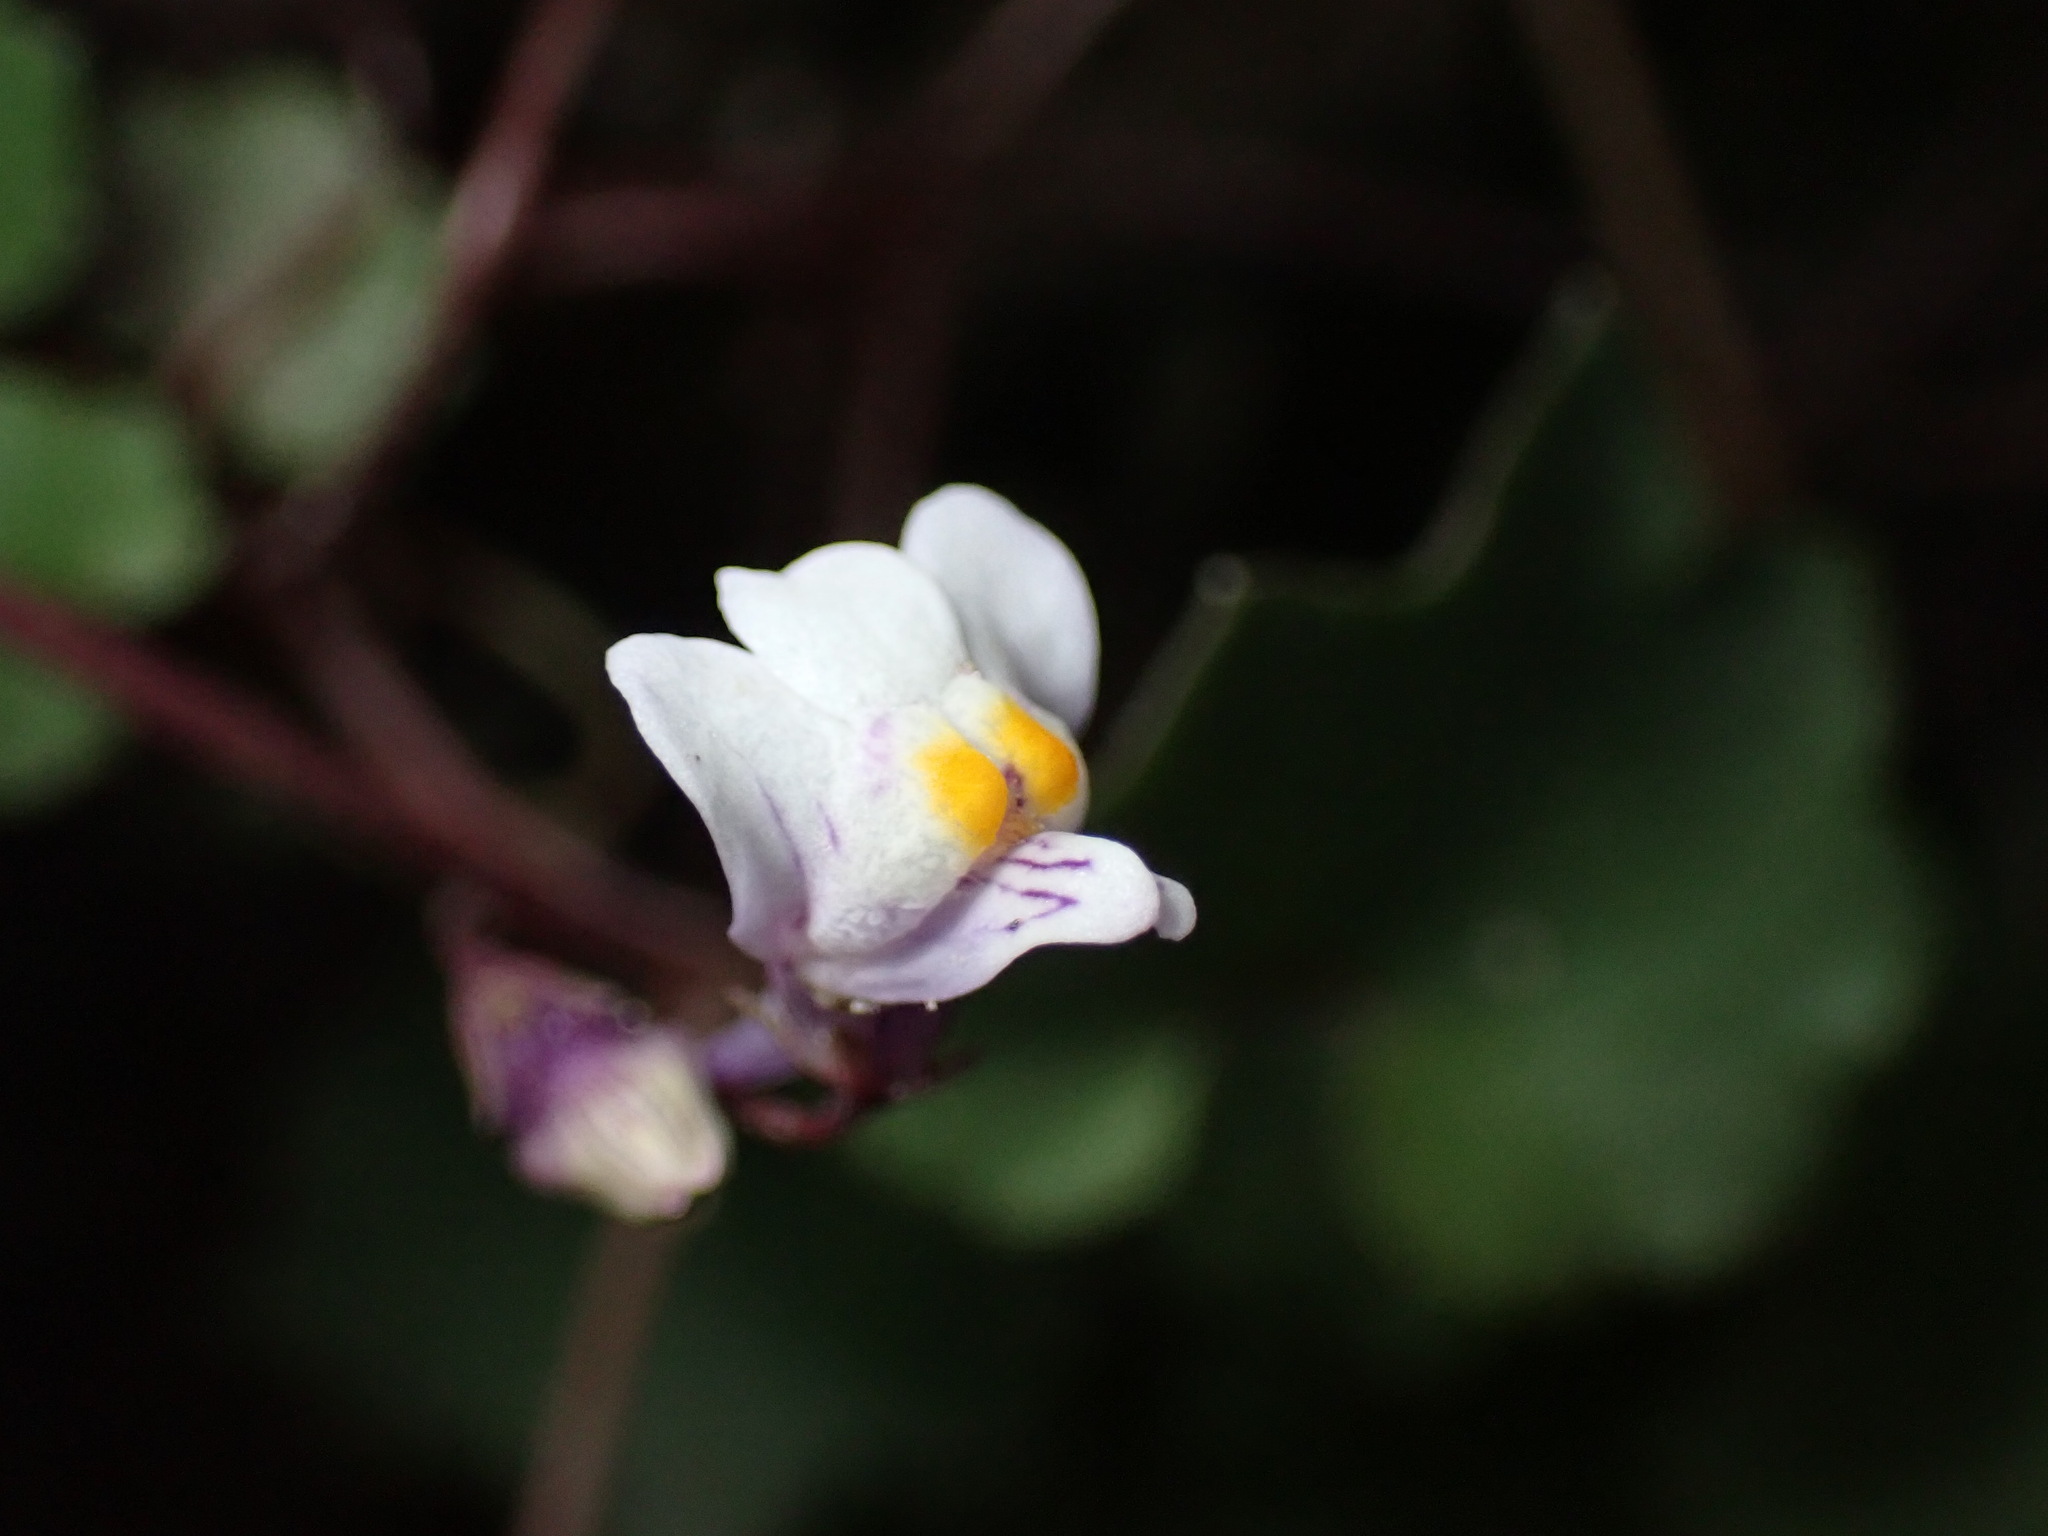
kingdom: Plantae
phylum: Tracheophyta
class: Magnoliopsida
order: Lamiales
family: Plantaginaceae
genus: Cymbalaria
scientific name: Cymbalaria muralis
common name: Ivy-leaved toadflax
